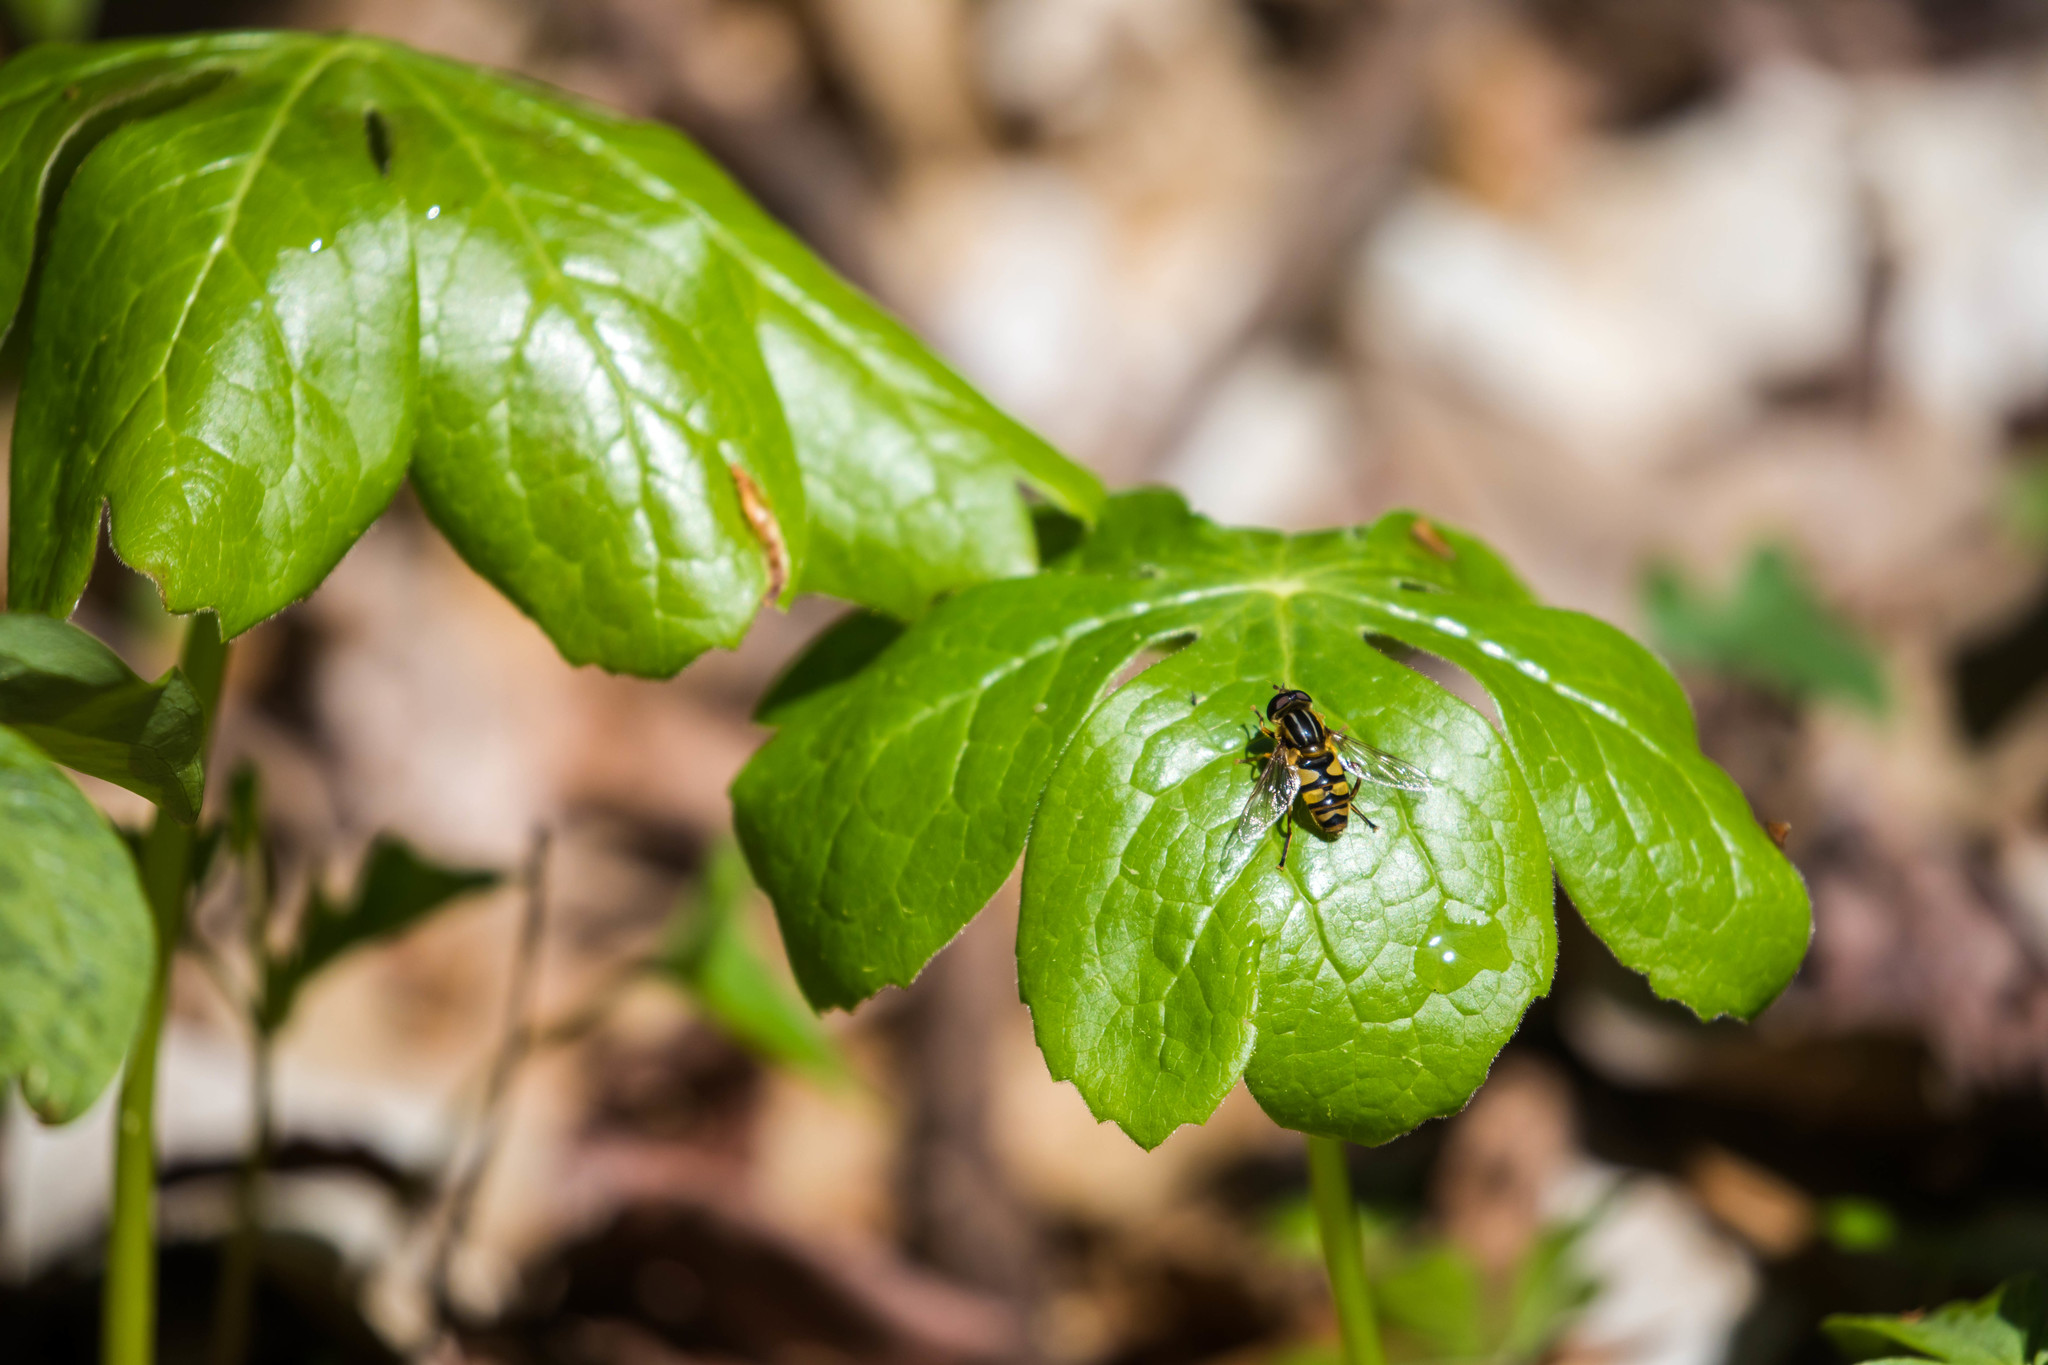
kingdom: Animalia
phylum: Arthropoda
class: Insecta
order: Diptera
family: Syrphidae
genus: Helophilus
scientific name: Helophilus fasciatus
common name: Narrow-headed marsh fly
